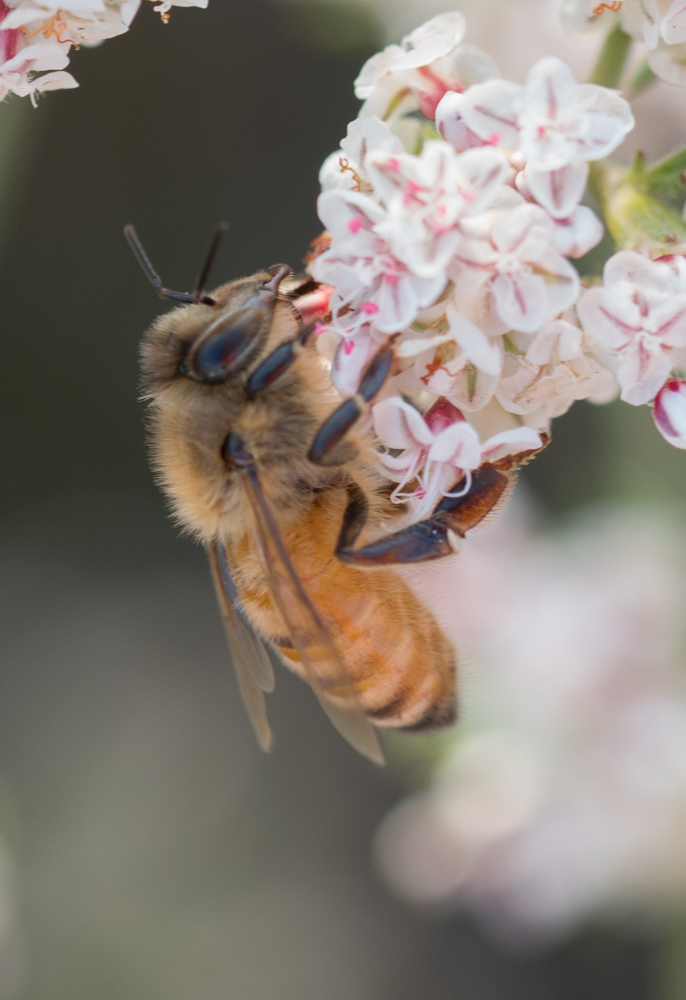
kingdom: Animalia
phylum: Arthropoda
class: Insecta
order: Hymenoptera
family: Apidae
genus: Apis
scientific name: Apis mellifera
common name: Honey bee
